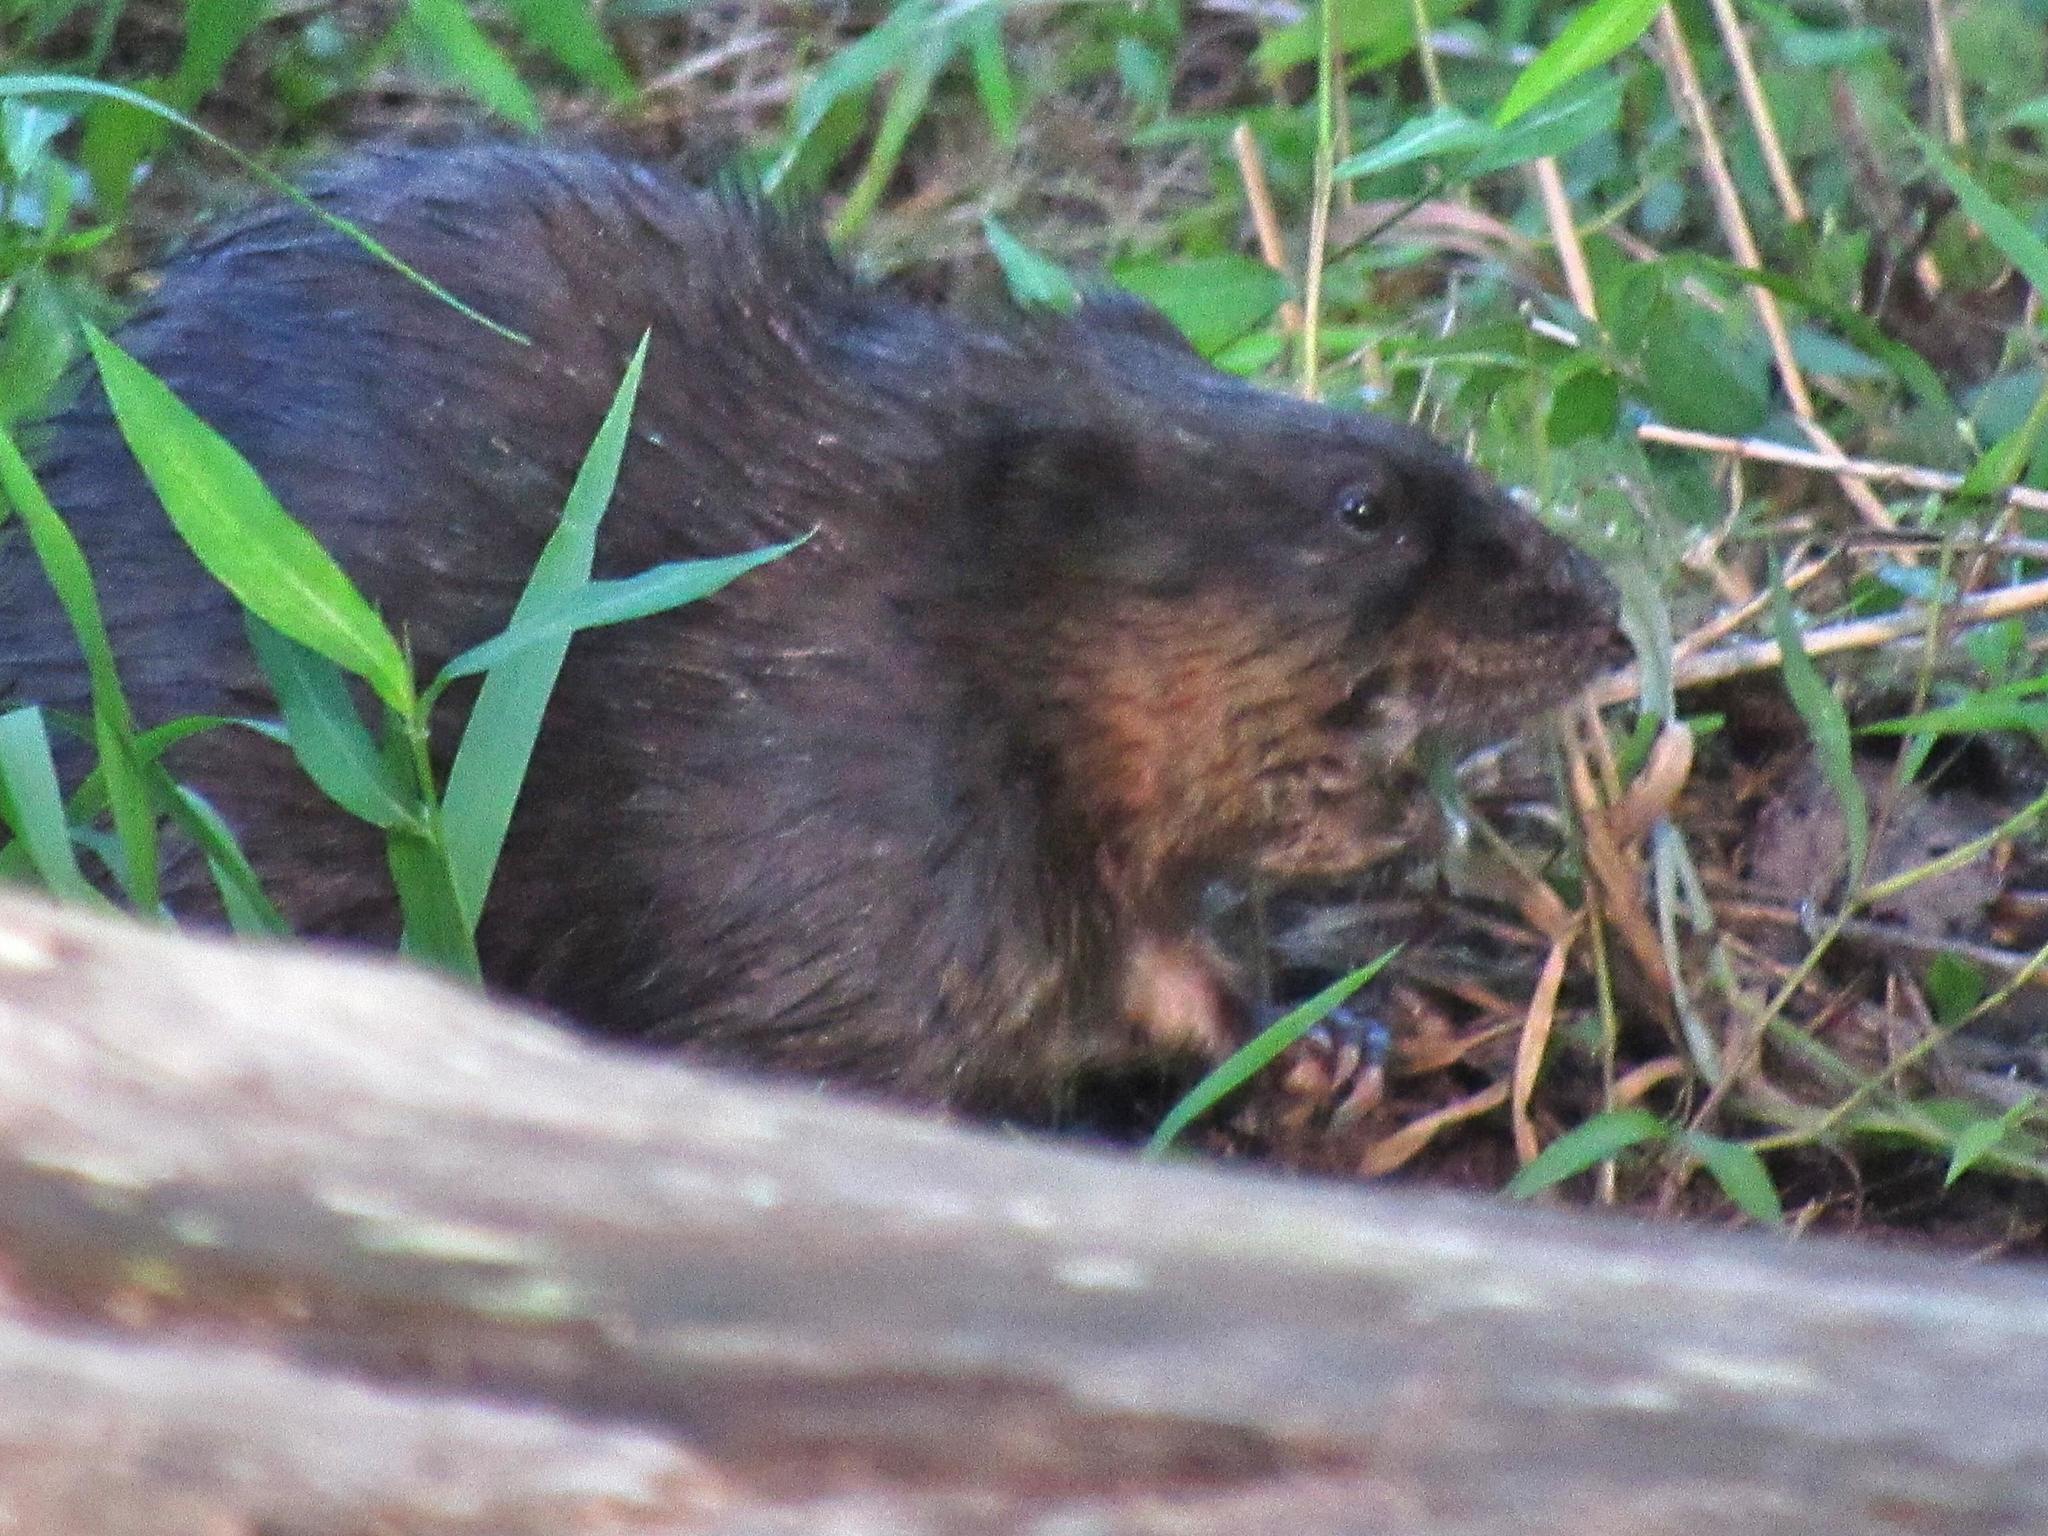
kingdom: Animalia
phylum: Chordata
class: Mammalia
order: Rodentia
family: Cricetidae
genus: Ondatra
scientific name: Ondatra zibethicus
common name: Muskrat
